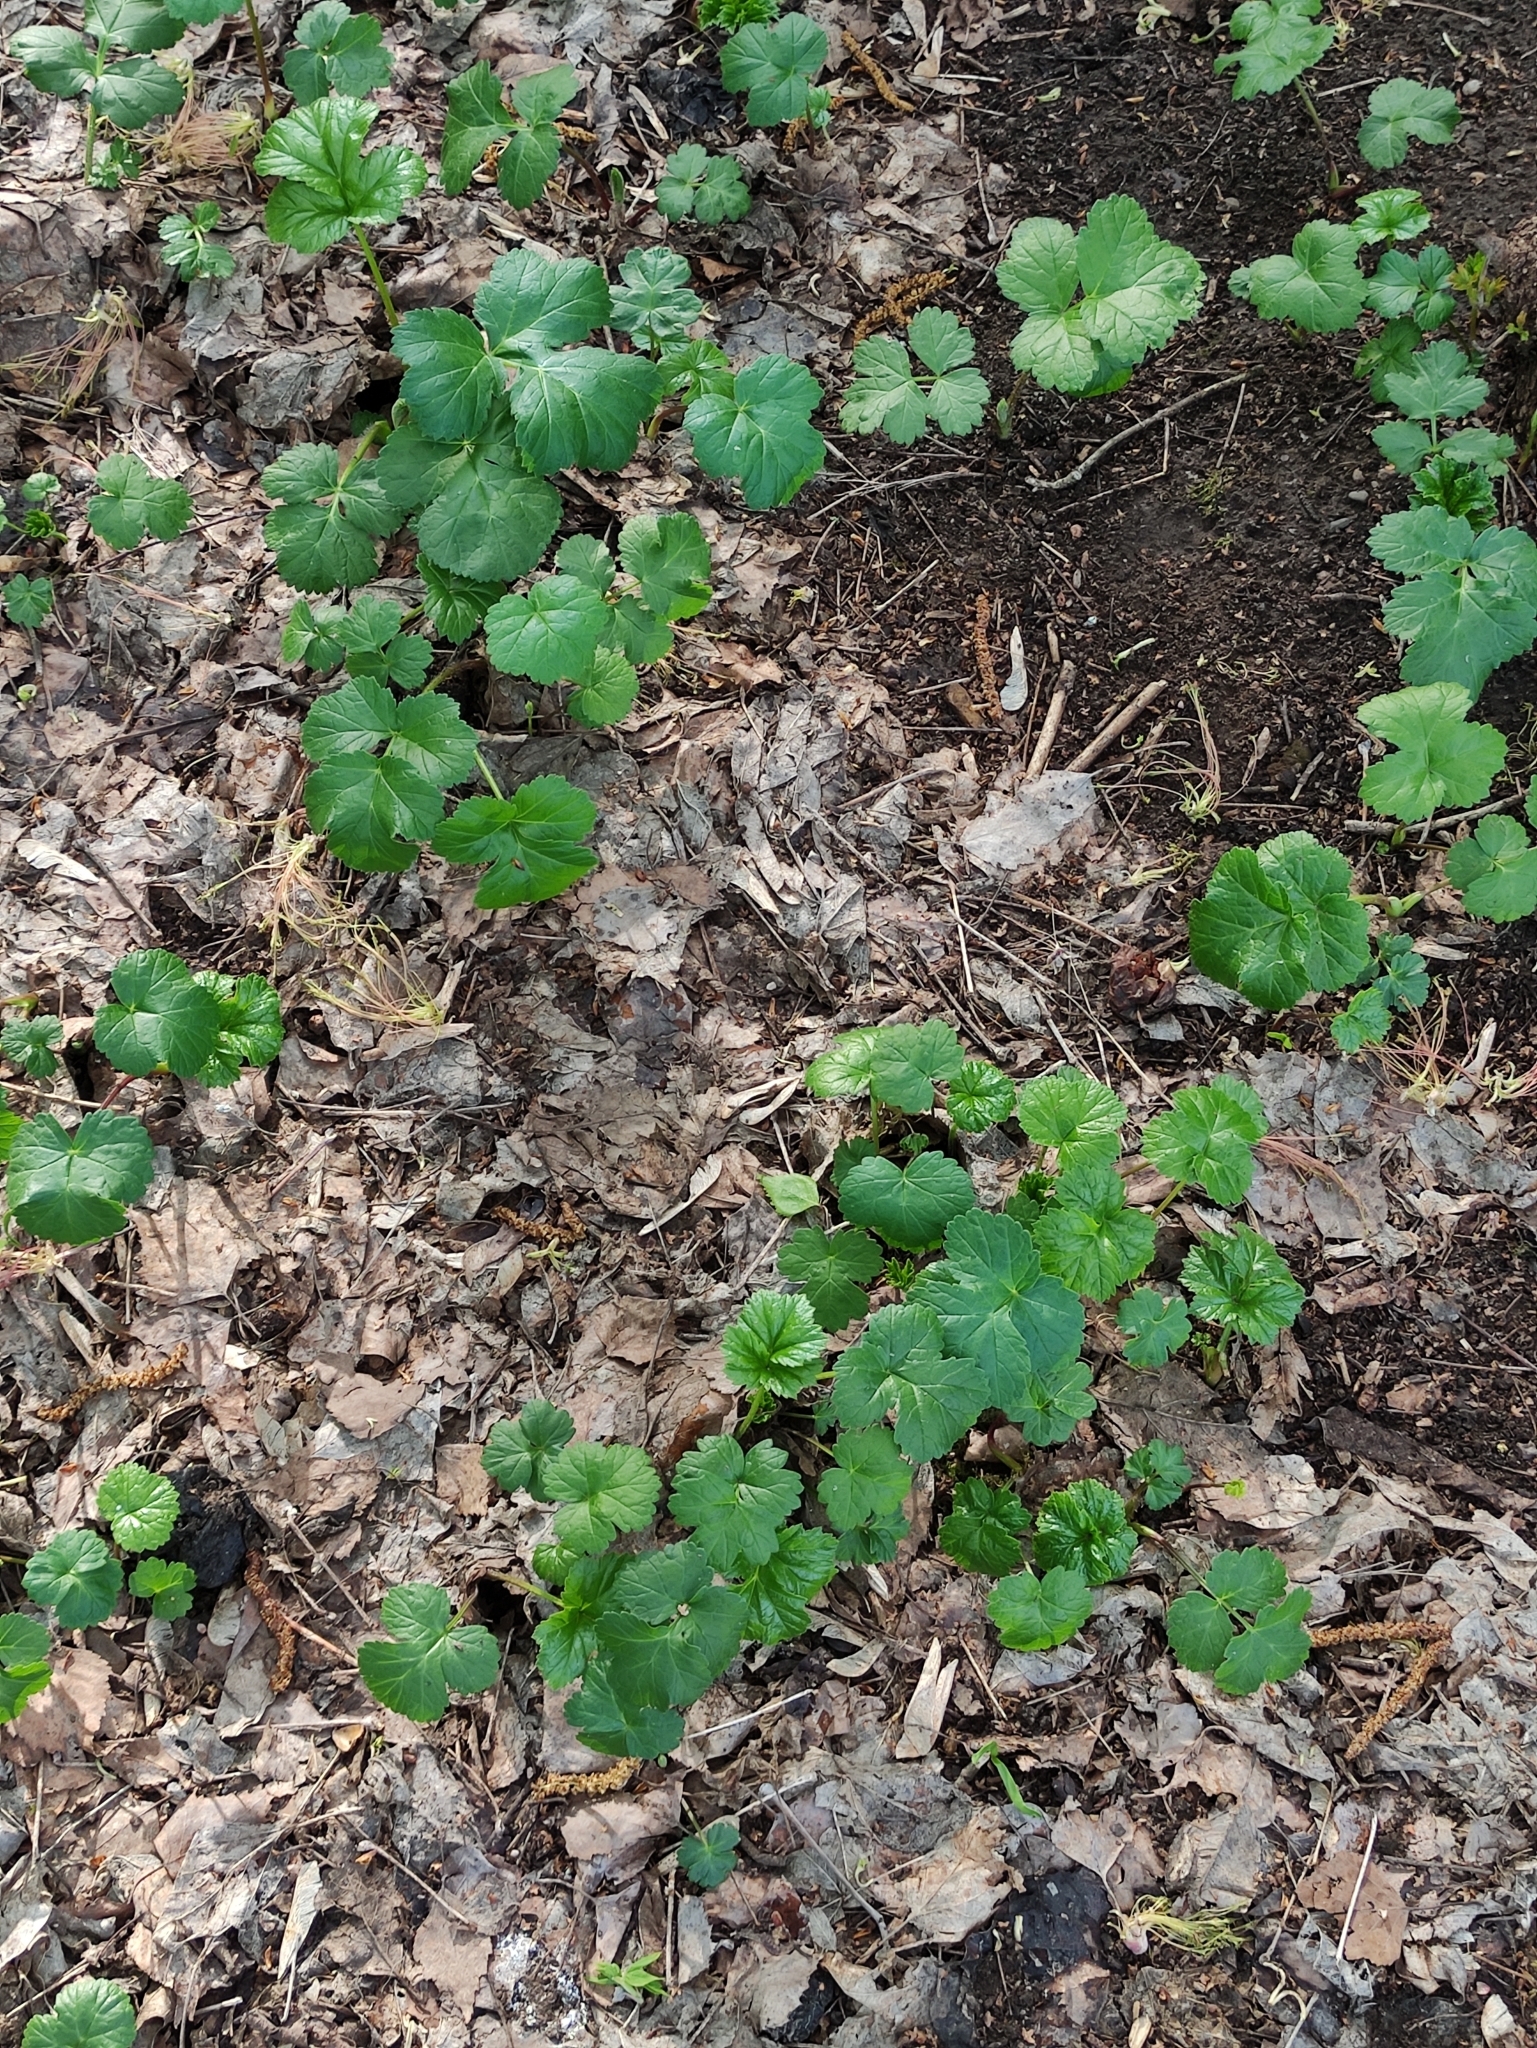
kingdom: Plantae
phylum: Tracheophyta
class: Magnoliopsida
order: Apiales
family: Apiaceae
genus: Heracleum
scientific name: Heracleum sosnowskyi
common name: Sosnowsky's hogweed
